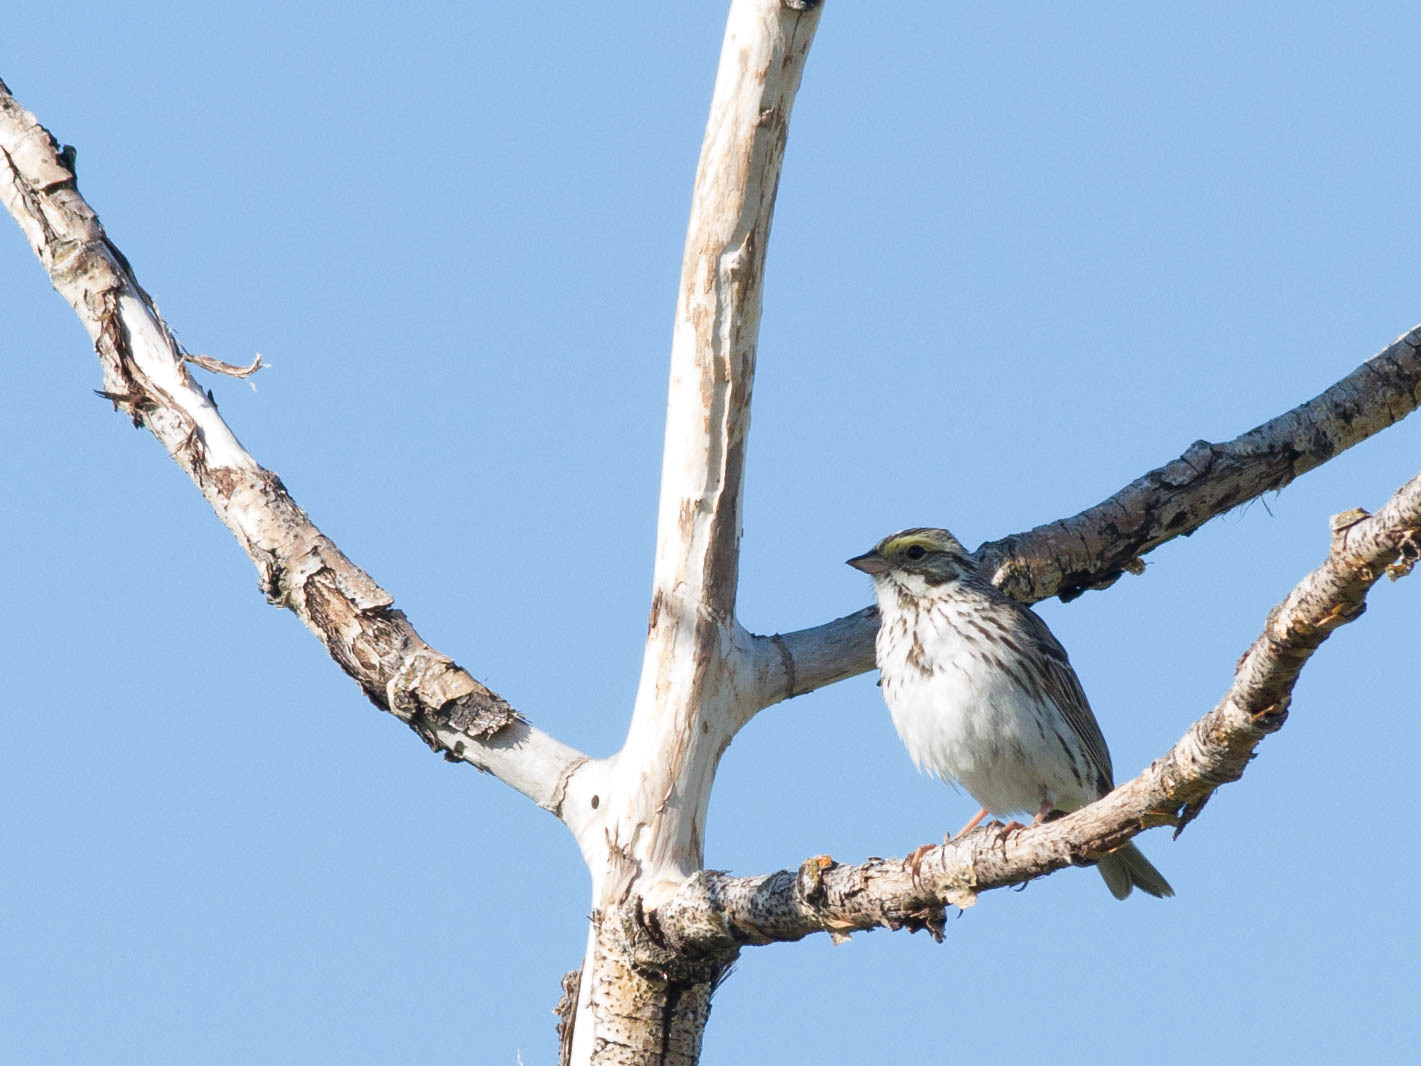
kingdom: Animalia
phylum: Chordata
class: Aves
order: Passeriformes
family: Passerellidae
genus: Passerculus
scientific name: Passerculus sandwichensis
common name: Savannah sparrow
